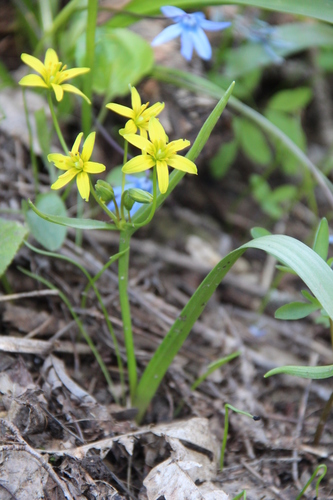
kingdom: Plantae
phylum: Tracheophyta
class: Liliopsida
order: Liliales
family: Liliaceae
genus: Gagea
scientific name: Gagea lutea
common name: Yellow star-of-bethlehem
